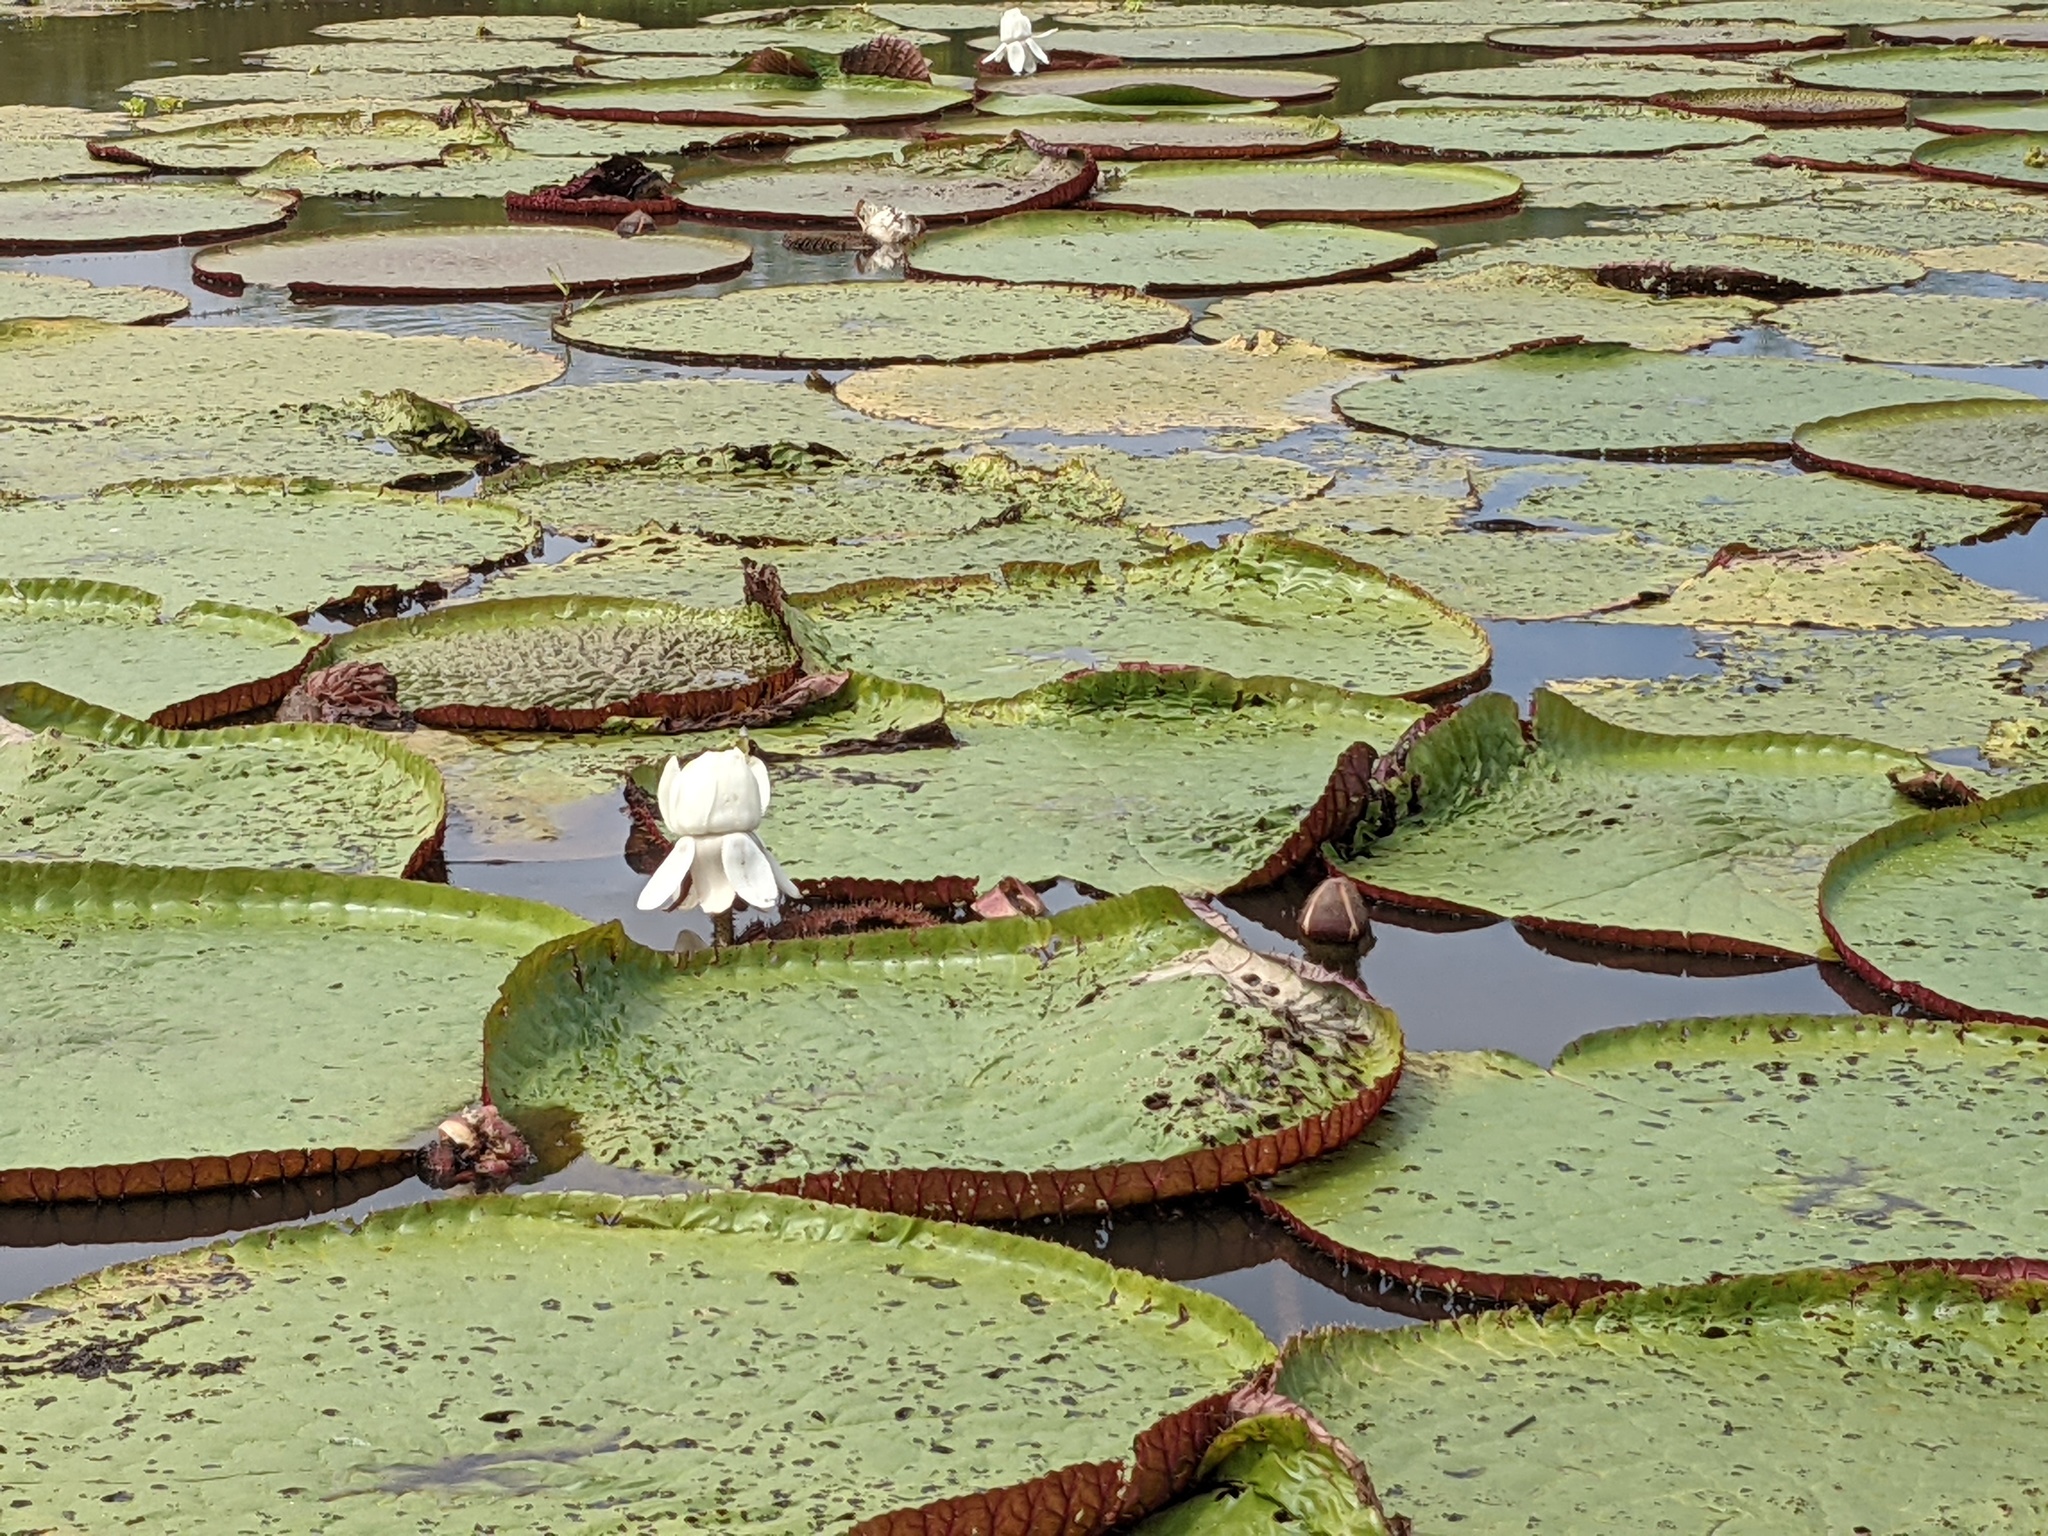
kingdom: Plantae
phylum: Tracheophyta
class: Magnoliopsida
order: Nymphaeales
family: Nymphaeaceae
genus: Victoria
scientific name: Victoria amazonica
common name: Amazon water-lily
